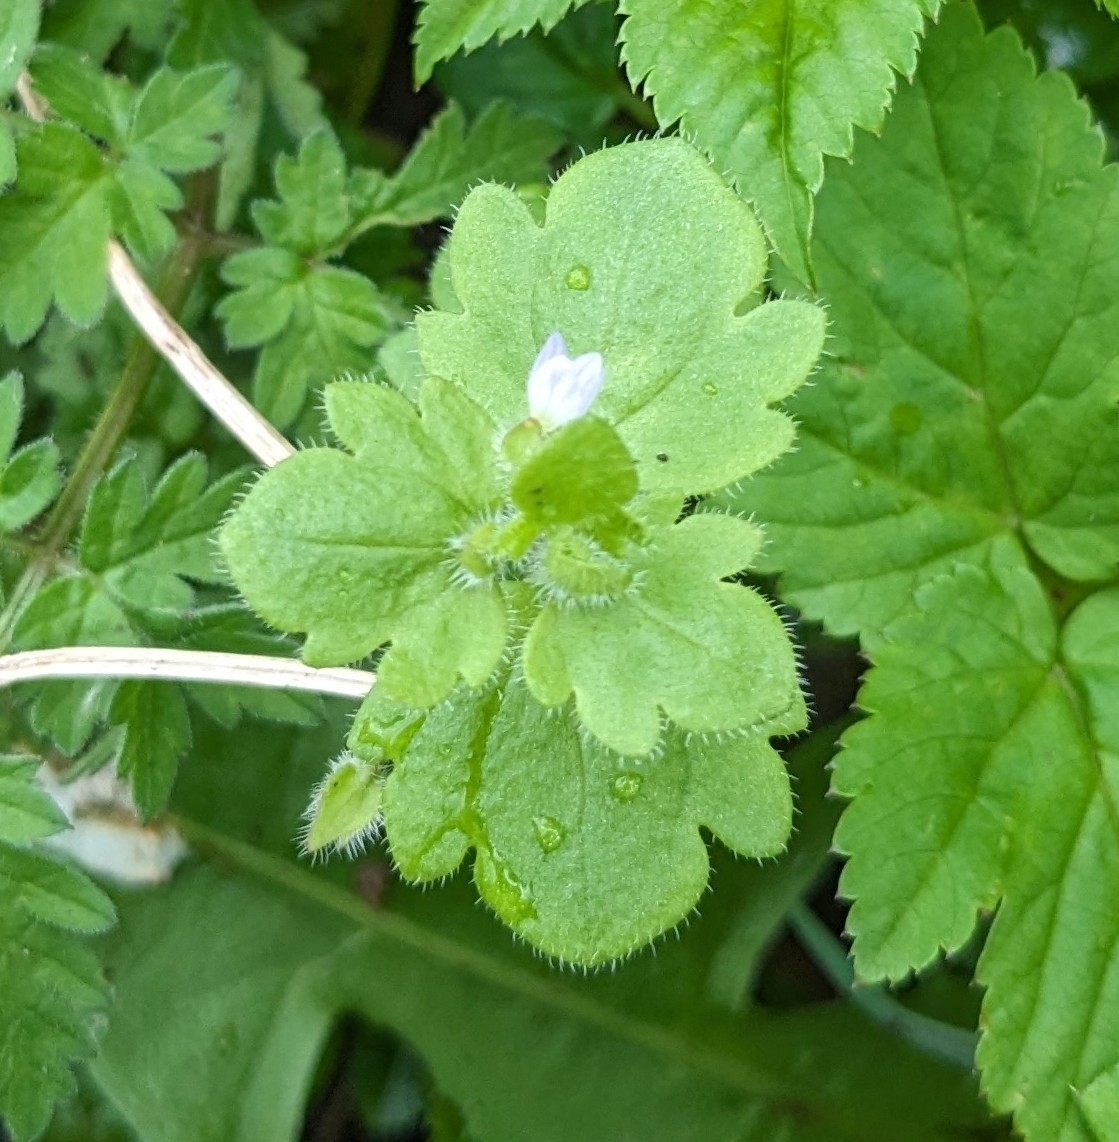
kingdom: Plantae
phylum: Tracheophyta
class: Magnoliopsida
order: Lamiales
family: Plantaginaceae
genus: Veronica
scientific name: Veronica sublobata
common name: False ivy-leaved speedwell
